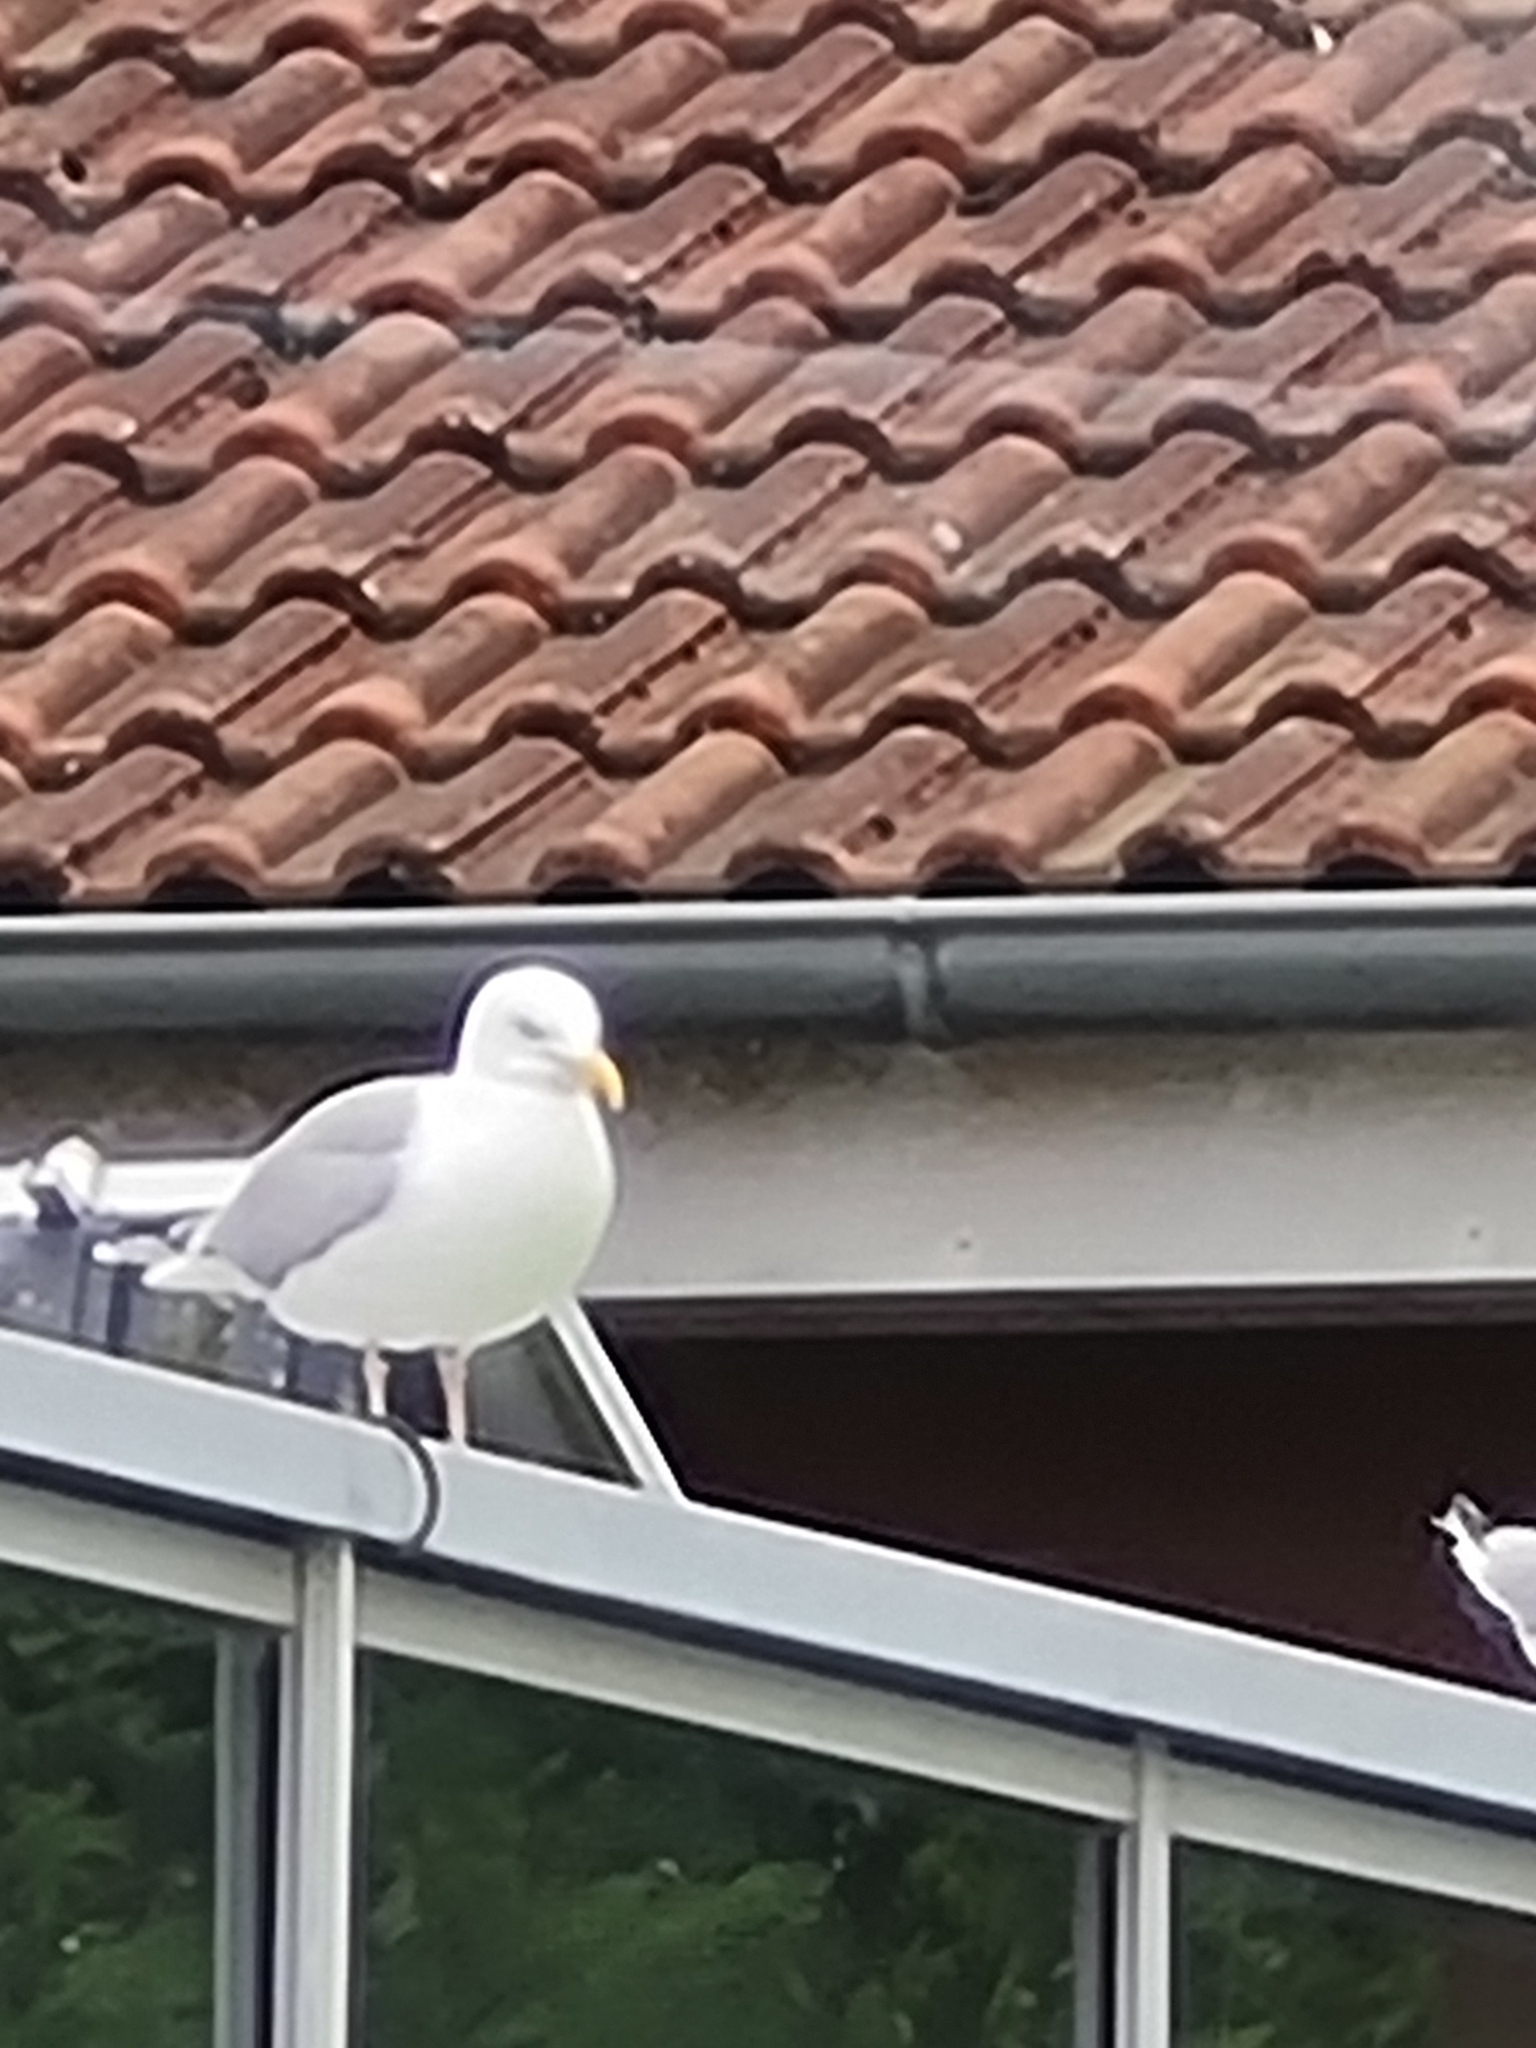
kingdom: Animalia
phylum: Chordata
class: Aves
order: Charadriiformes
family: Laridae
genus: Larus
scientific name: Larus argentatus
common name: Herring gull
